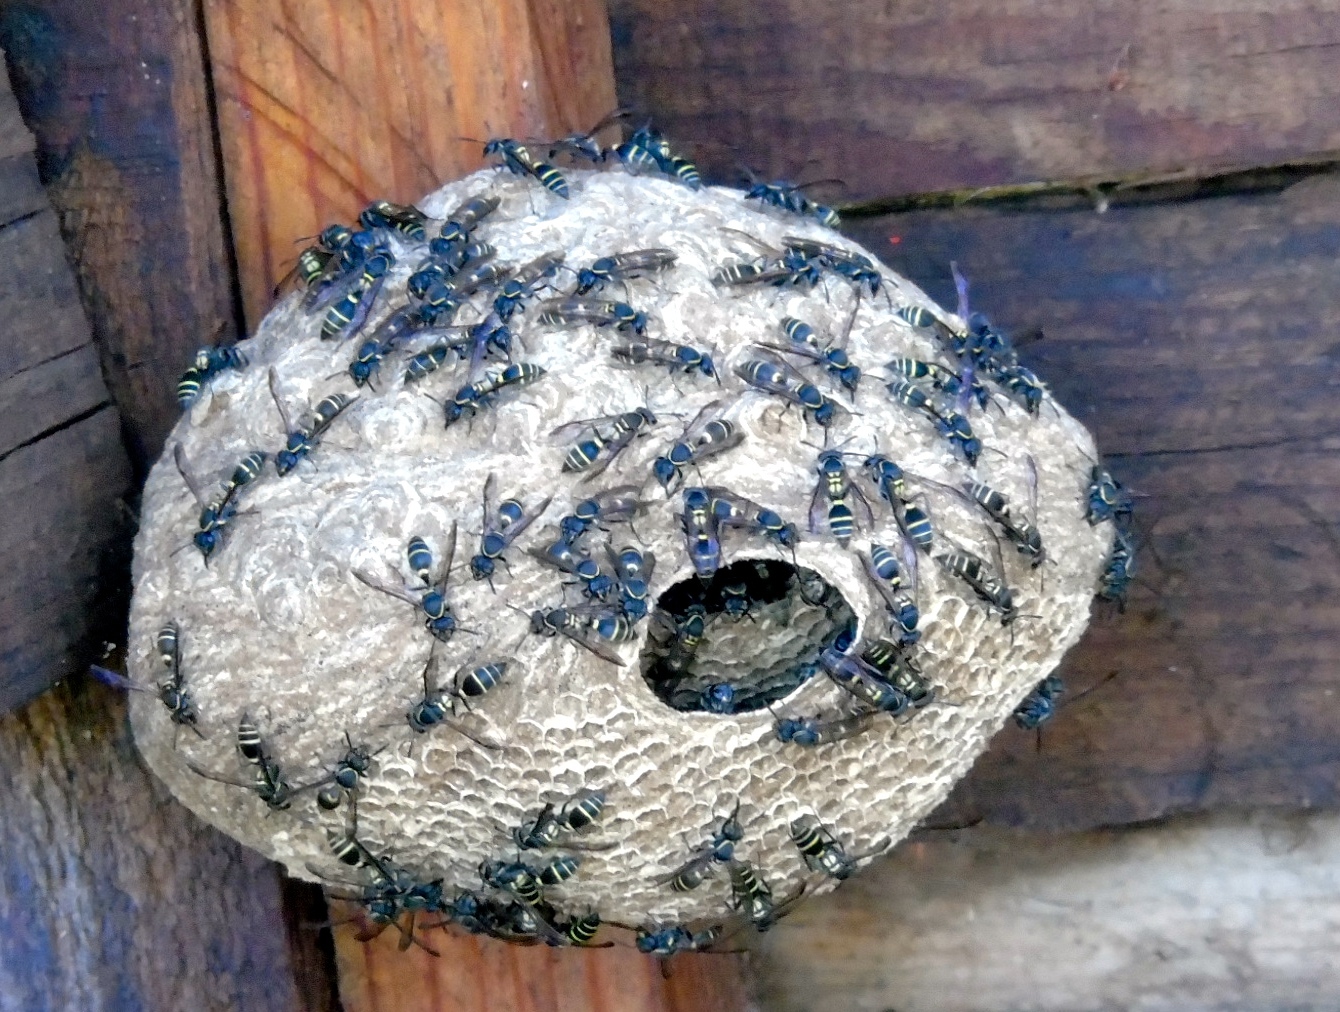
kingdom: Animalia
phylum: Arthropoda
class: Insecta
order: Hymenoptera
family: Vespidae
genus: Myrapetra
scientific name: Myrapetra
